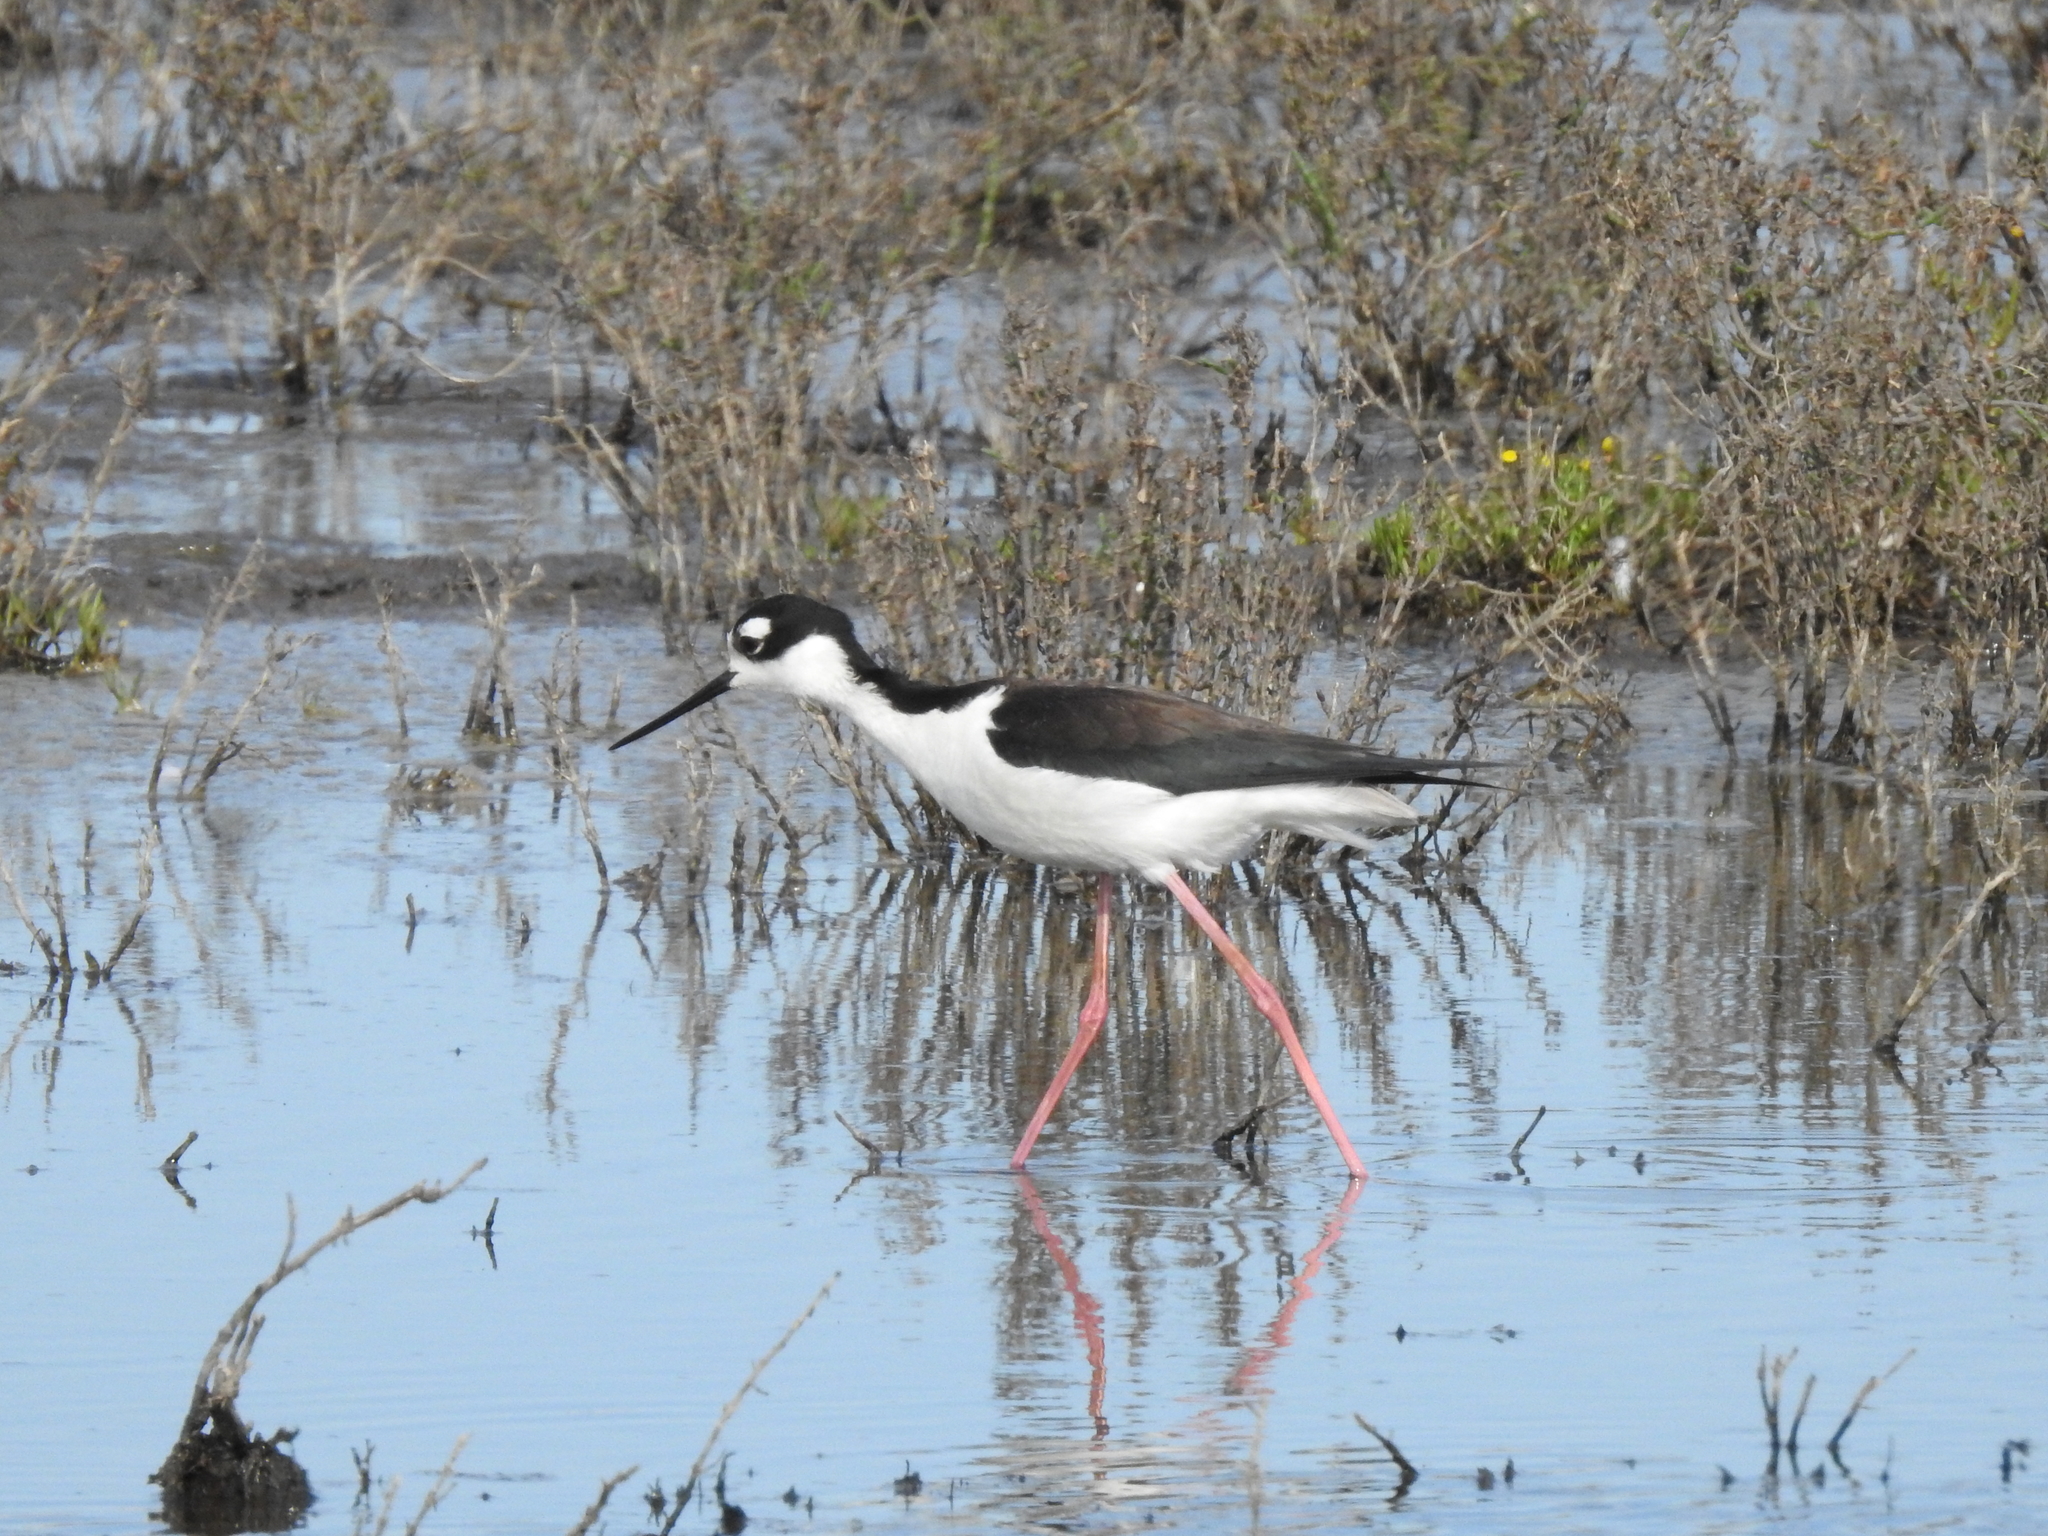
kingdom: Animalia
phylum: Chordata
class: Aves
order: Charadriiformes
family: Recurvirostridae
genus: Himantopus
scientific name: Himantopus mexicanus
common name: Black-necked stilt
